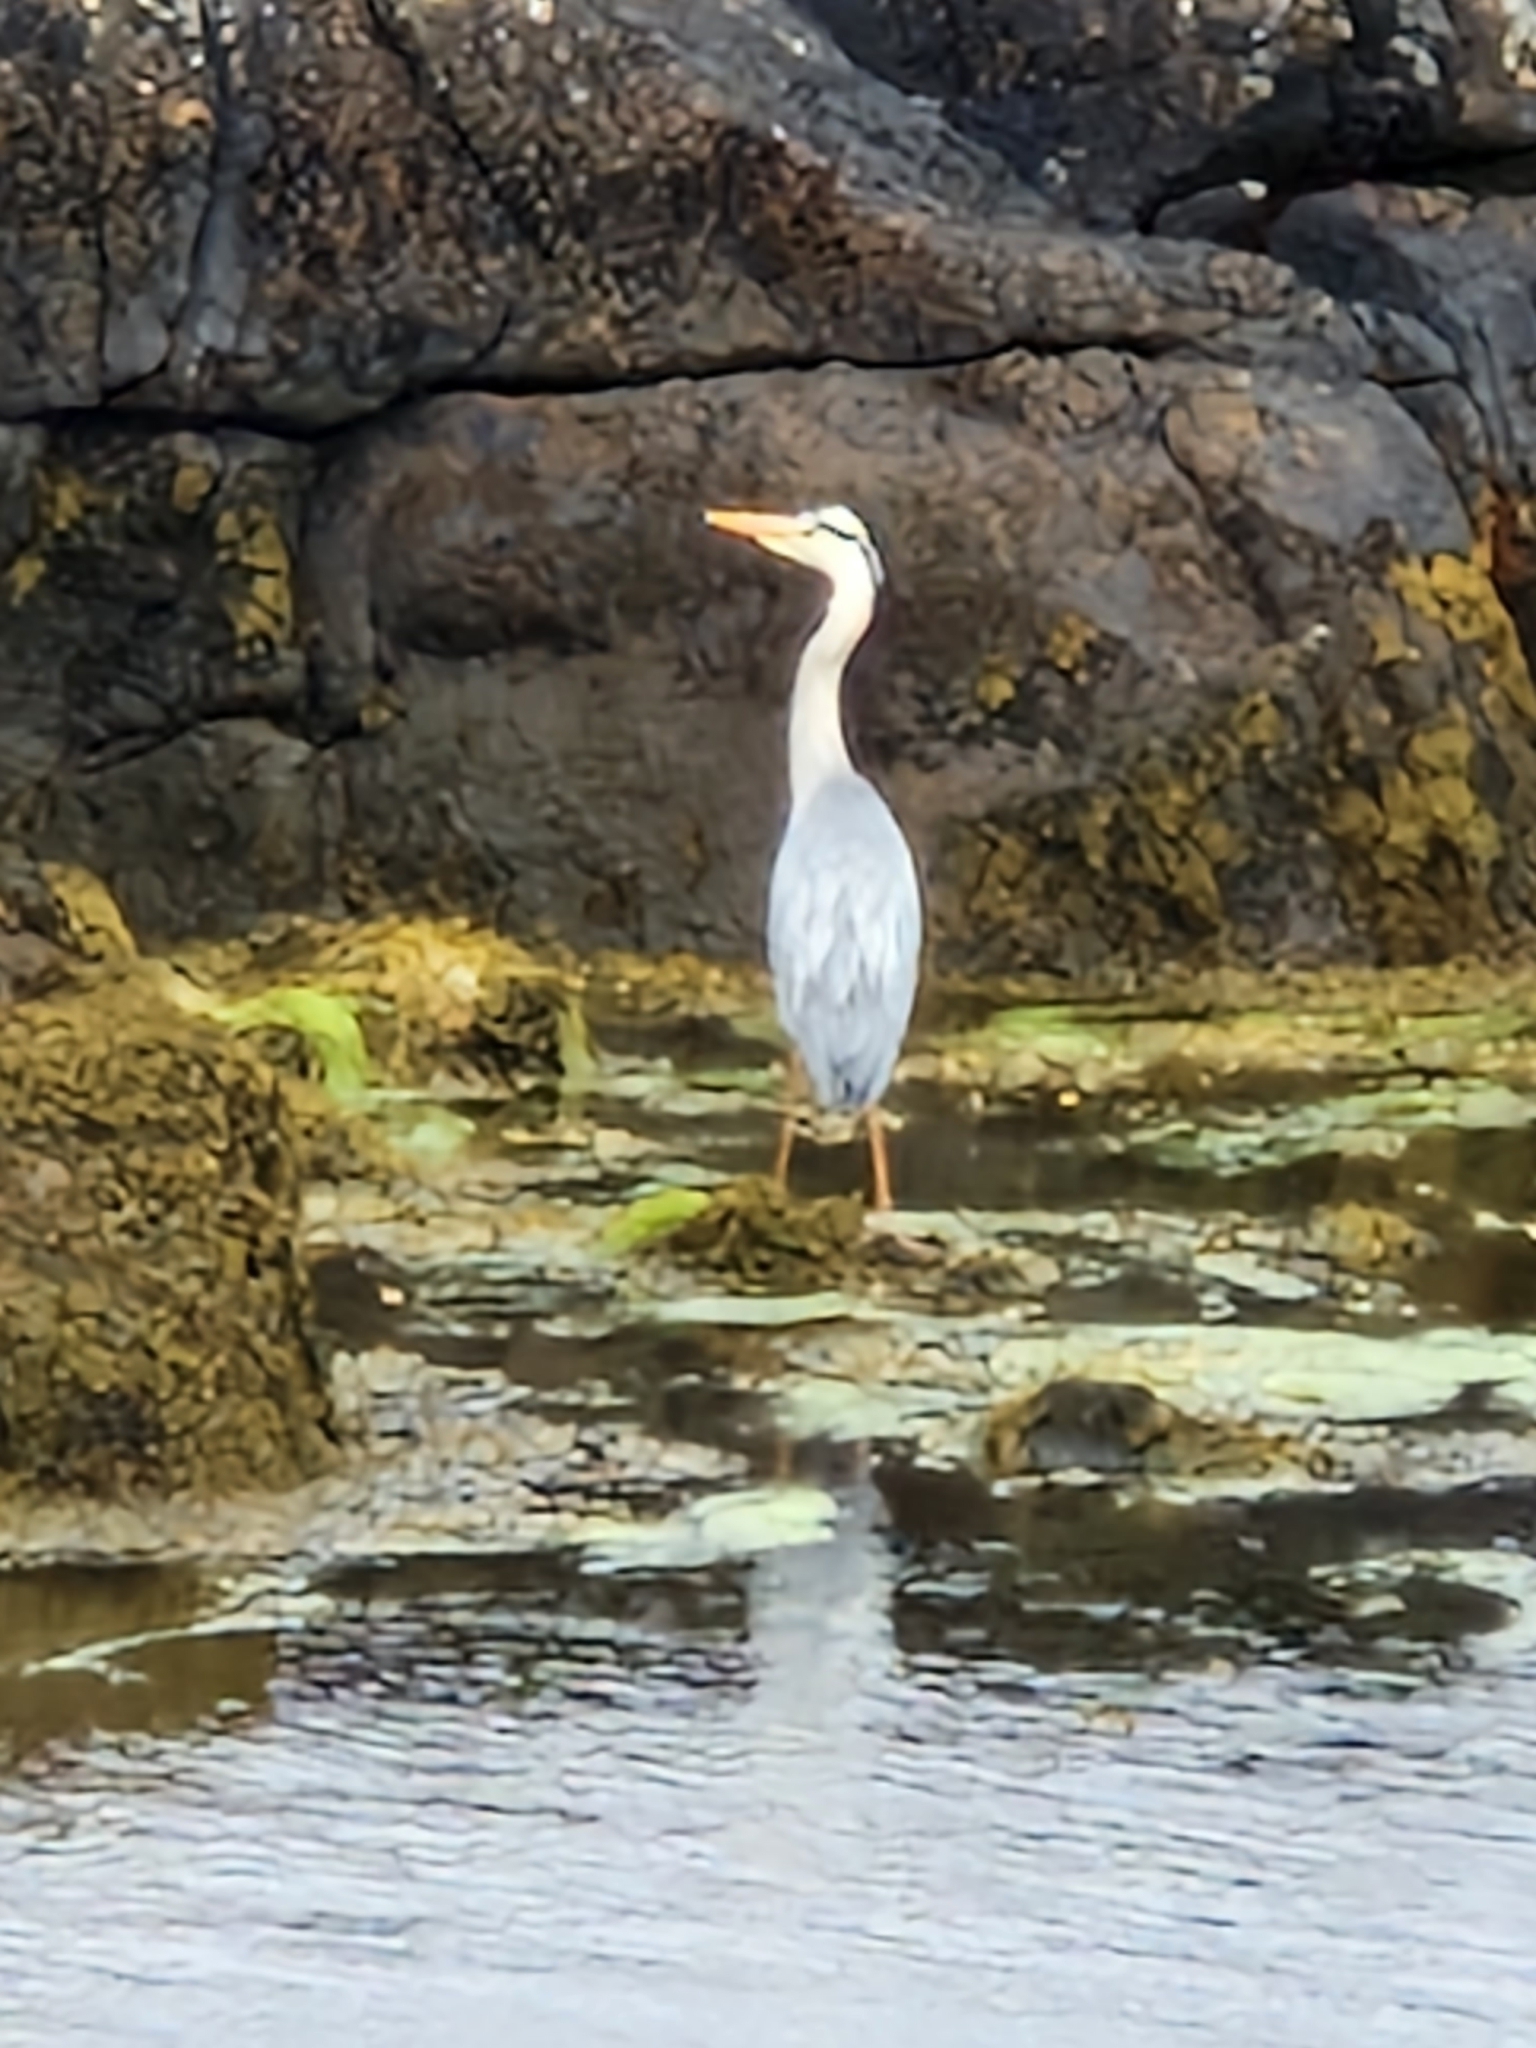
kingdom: Animalia
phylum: Chordata
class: Aves
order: Pelecaniformes
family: Ardeidae
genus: Ardea
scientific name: Ardea cinerea
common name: Grey heron
